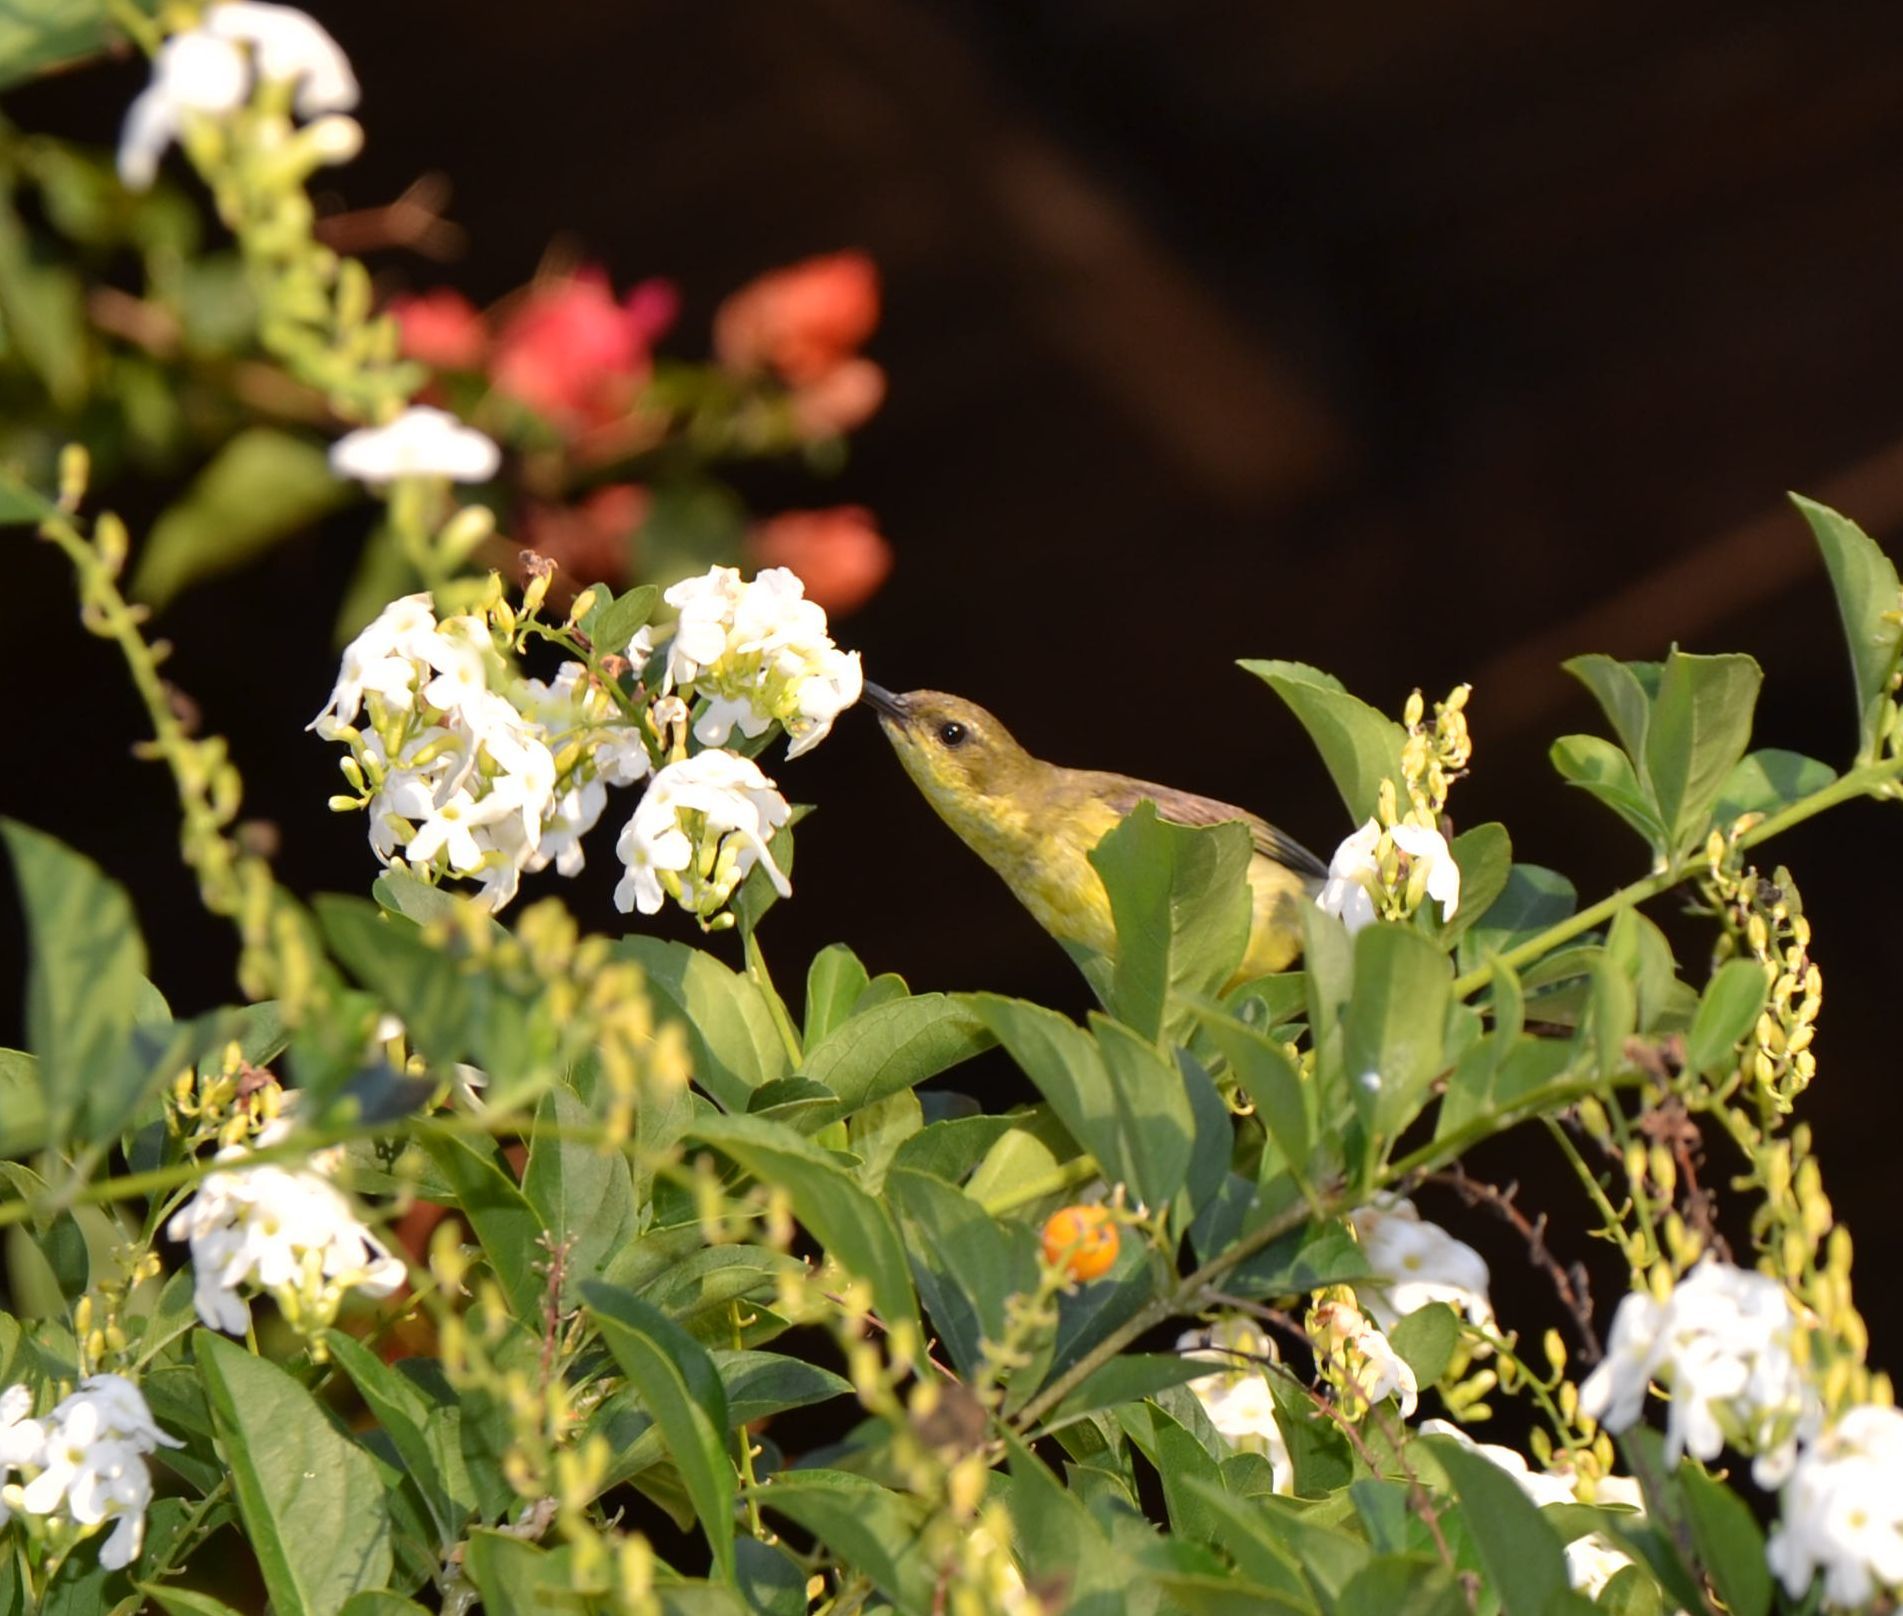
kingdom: Animalia
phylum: Chordata
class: Aves
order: Passeriformes
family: Nectariniidae
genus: Cinnyris
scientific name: Cinnyris
